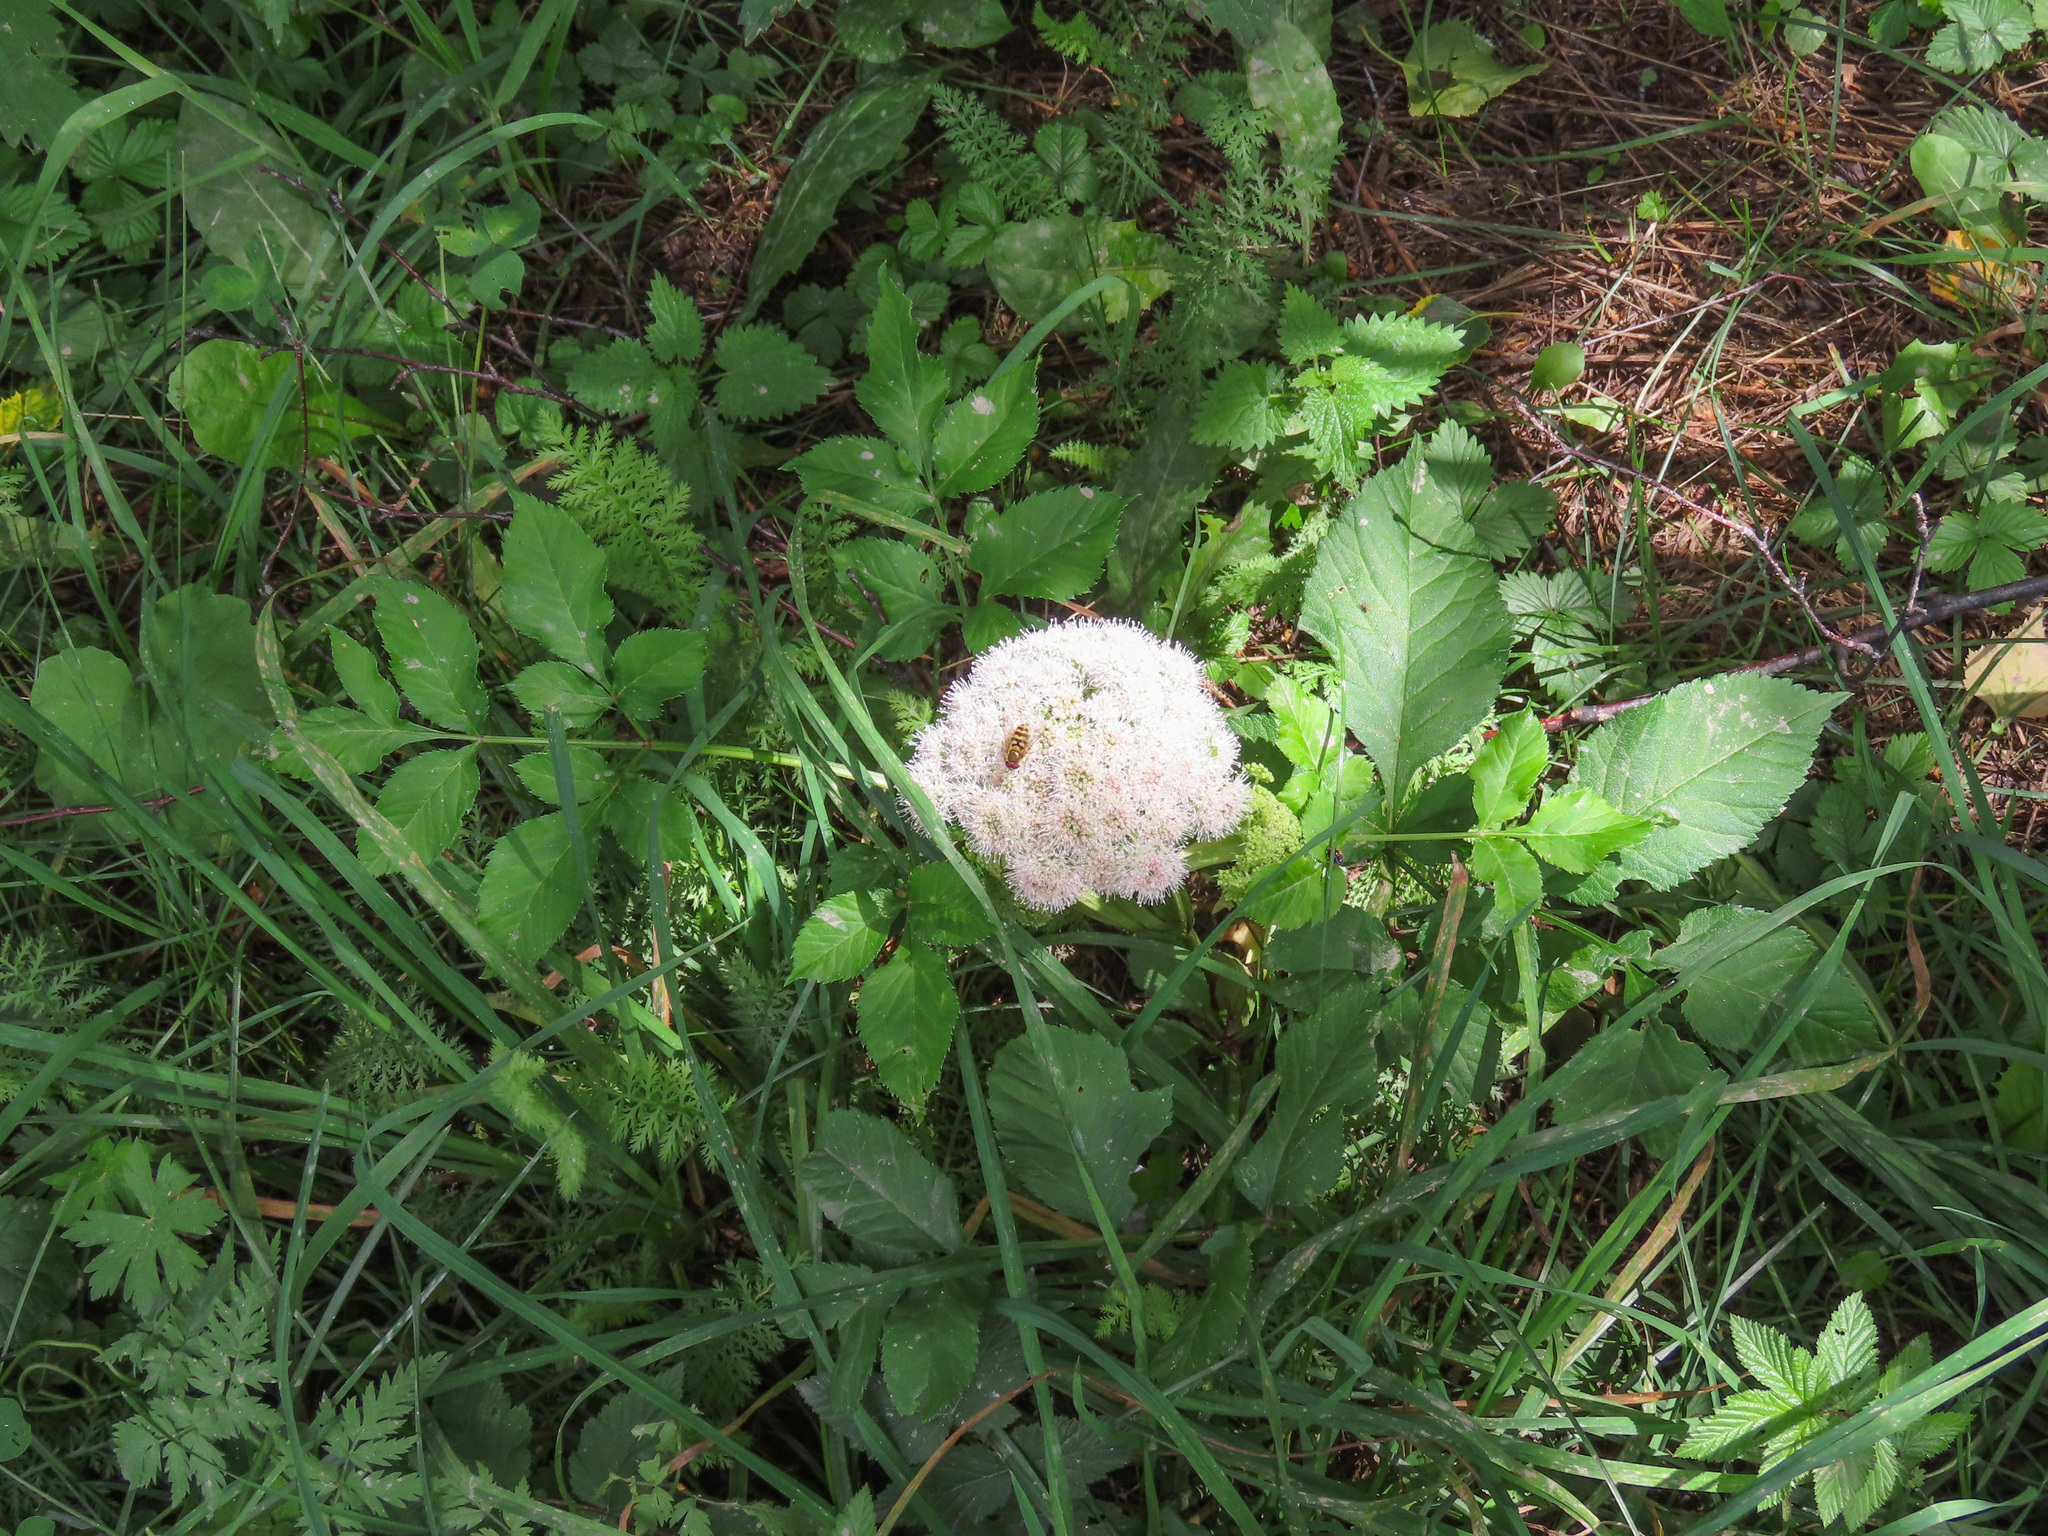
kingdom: Plantae
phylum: Tracheophyta
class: Magnoliopsida
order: Apiales
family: Apiaceae
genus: Angelica
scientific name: Angelica sylvestris
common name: Wild angelica
